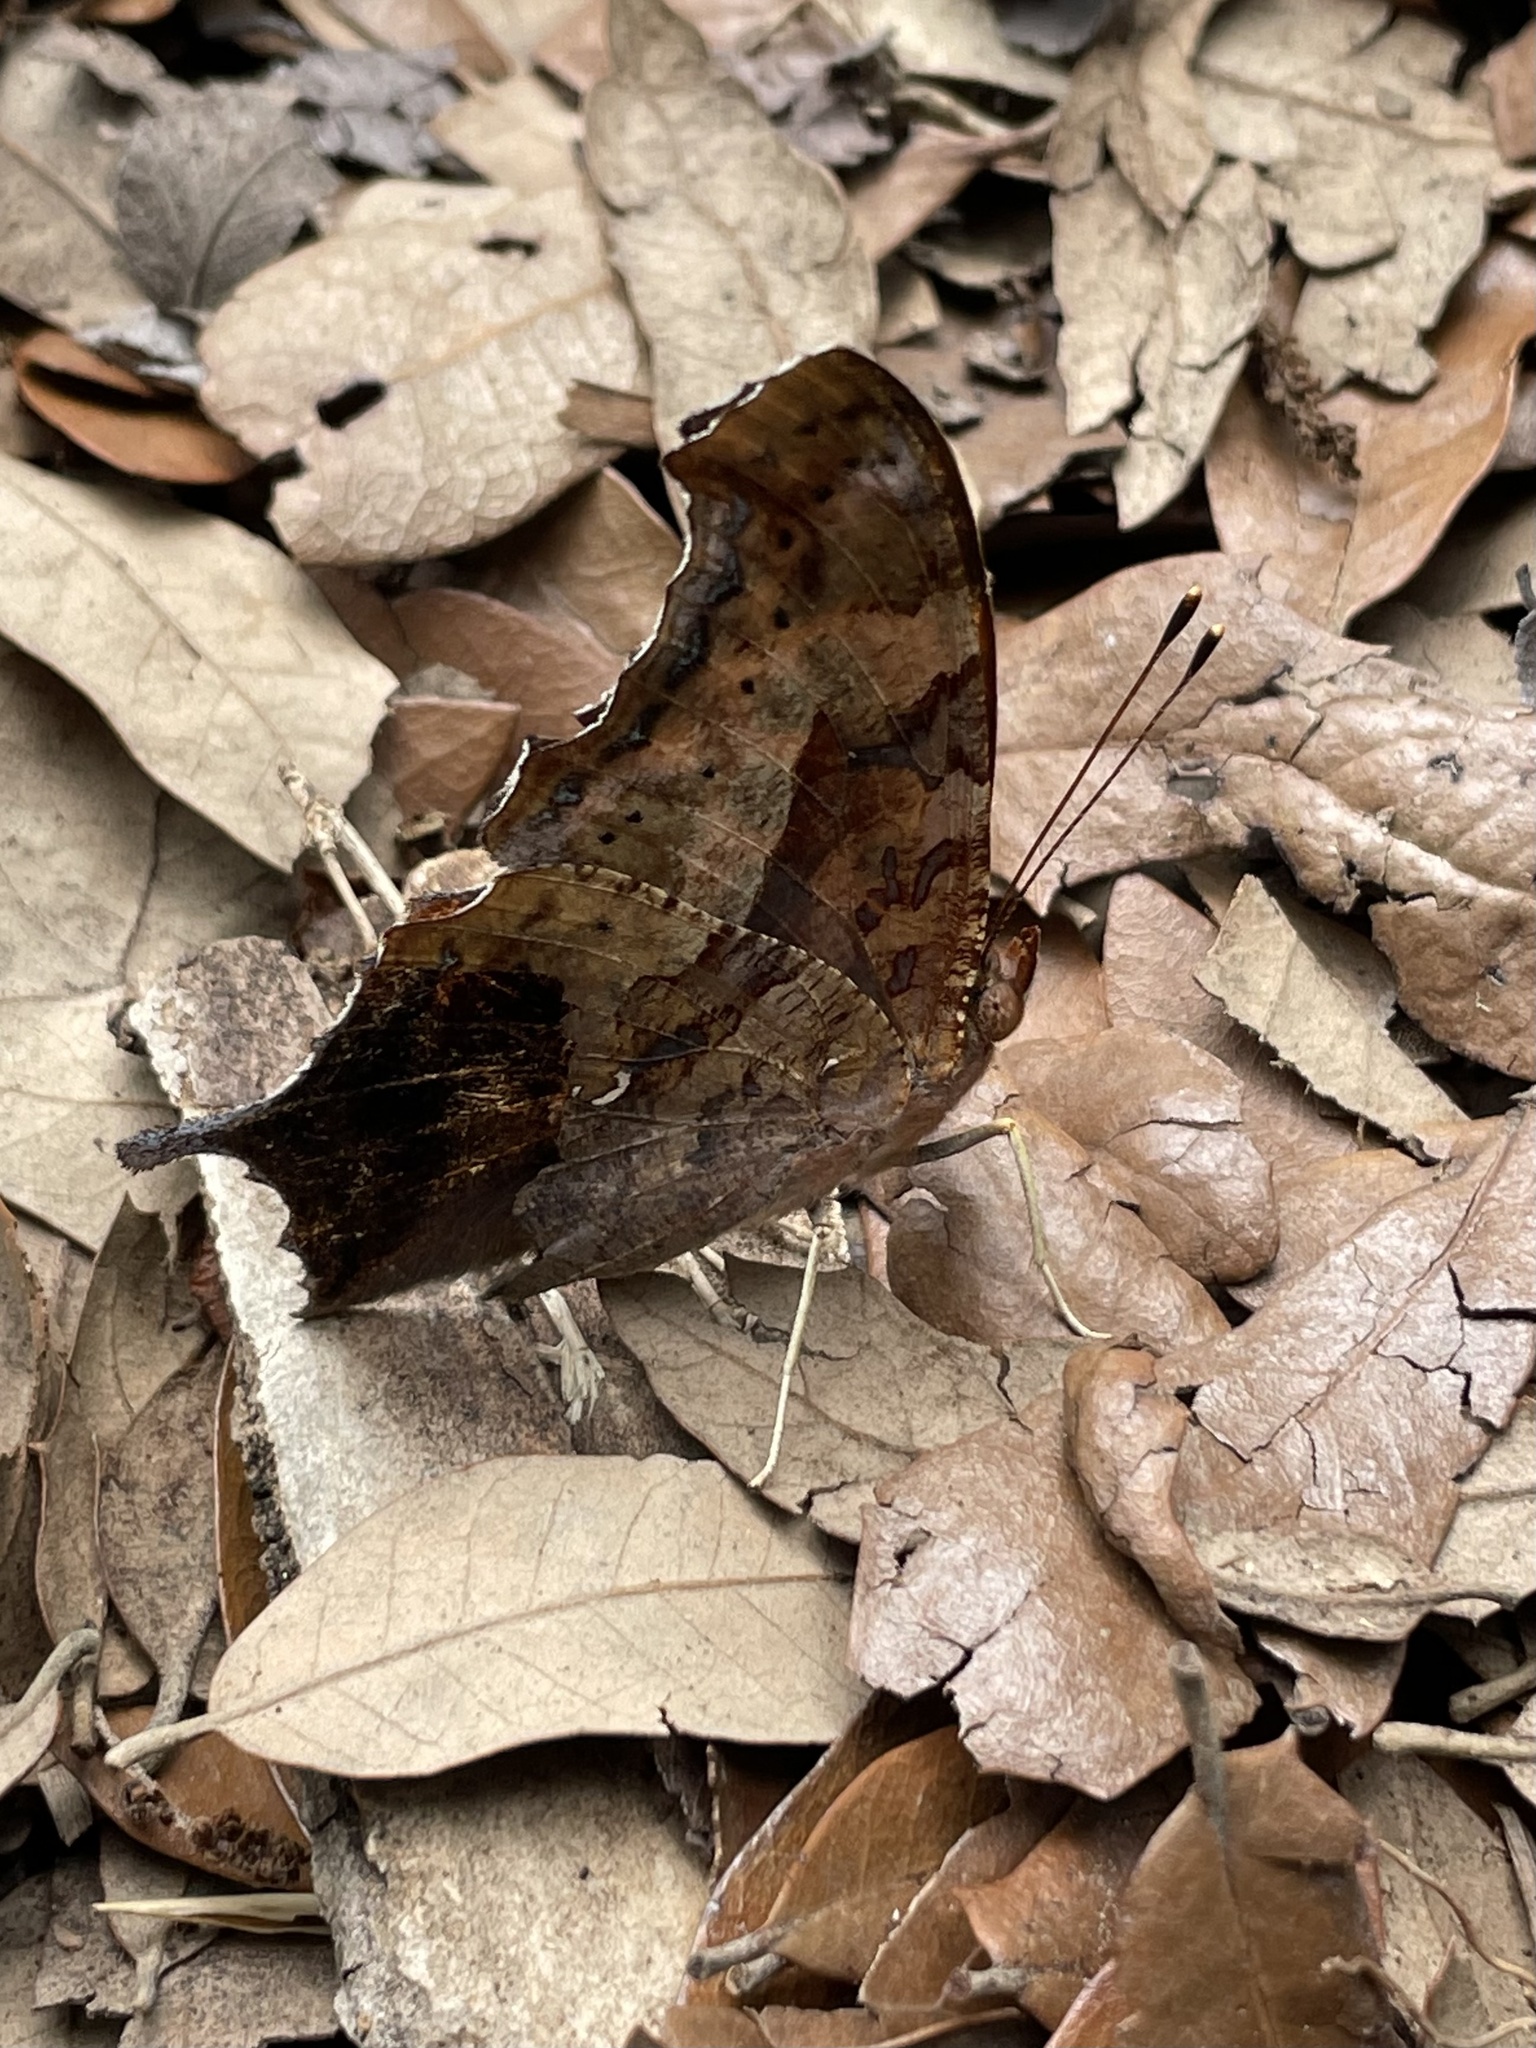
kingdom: Animalia
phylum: Arthropoda
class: Insecta
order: Lepidoptera
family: Nymphalidae
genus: Polygonia
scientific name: Polygonia interrogationis
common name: Question mark
